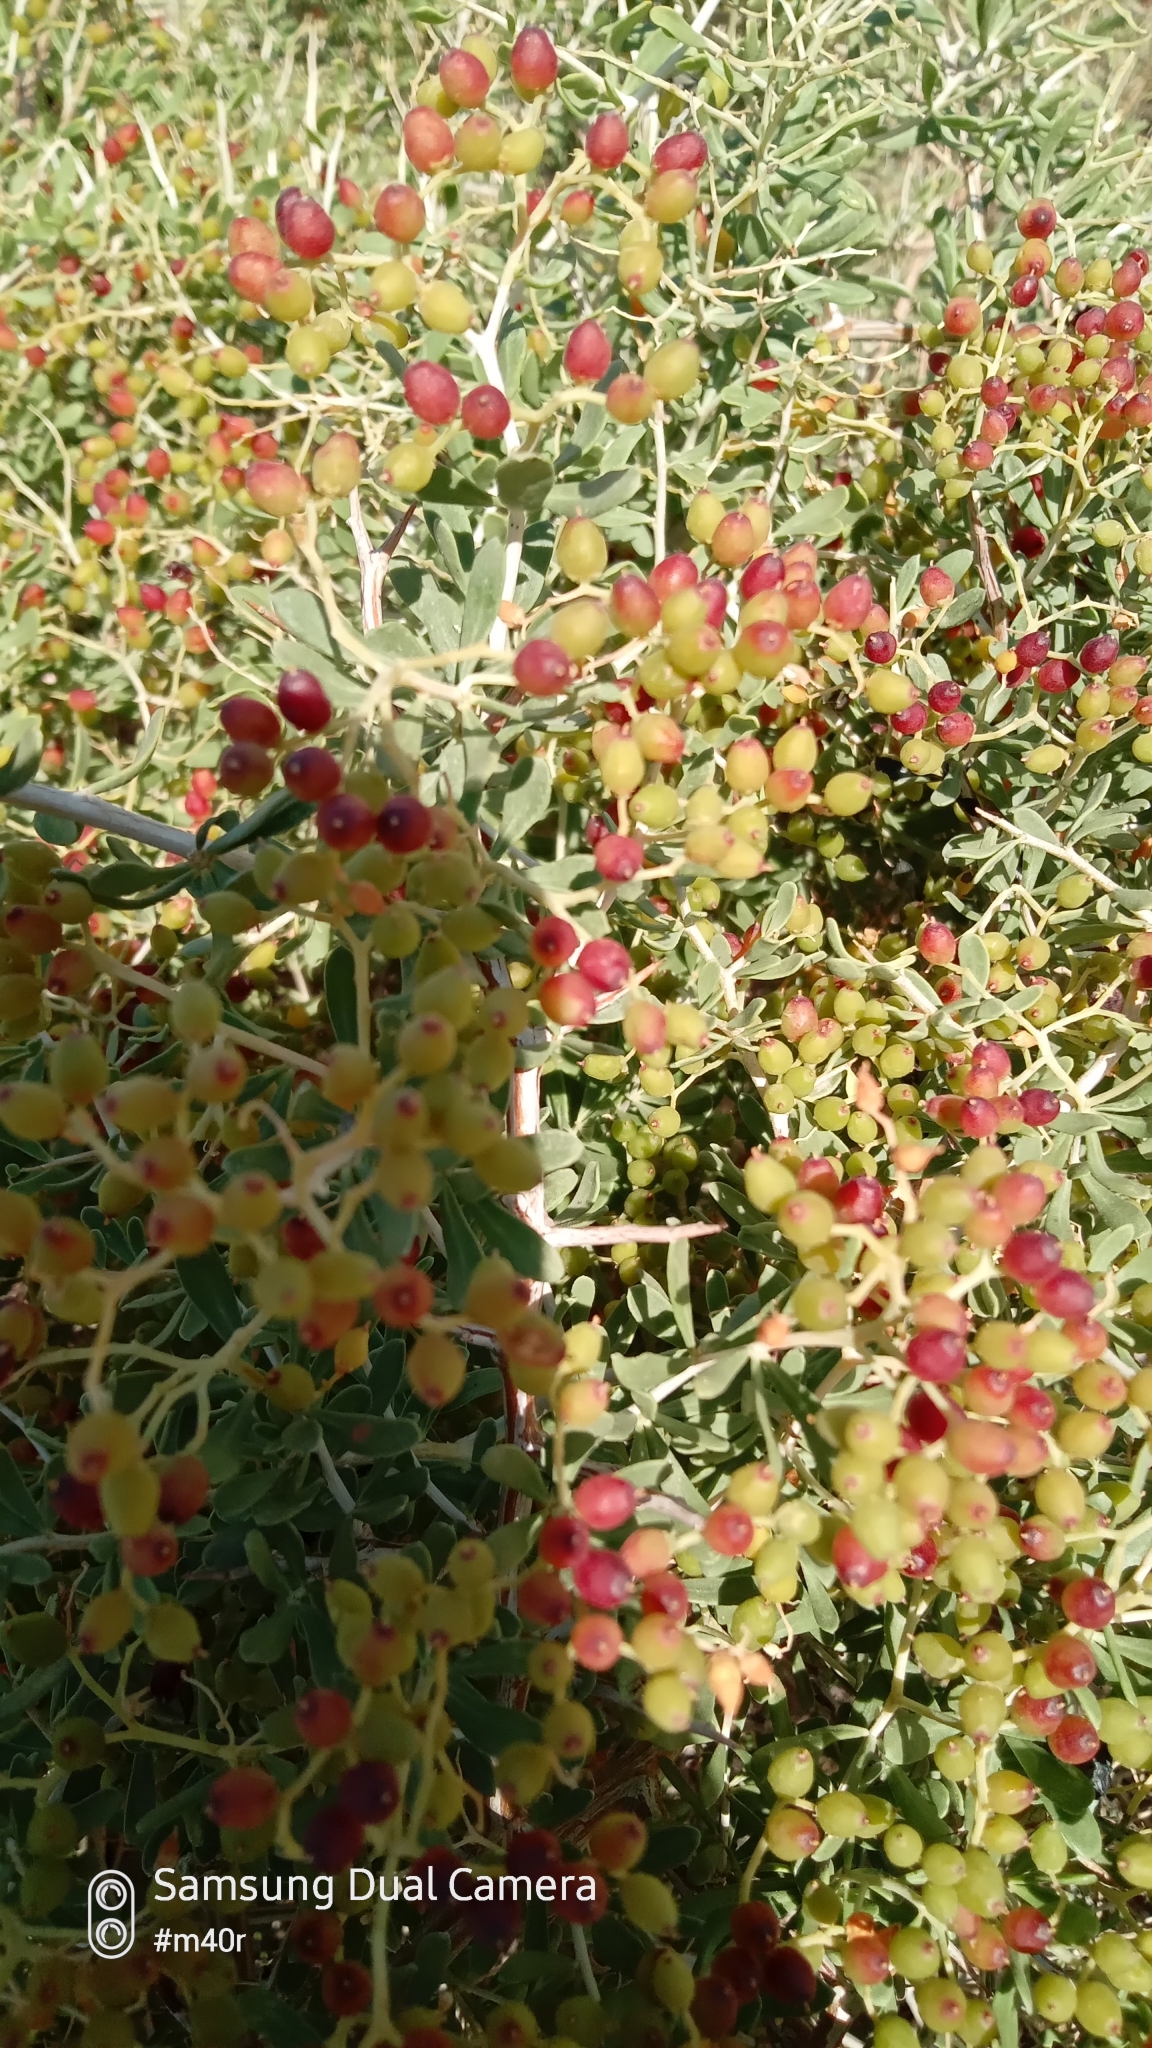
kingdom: Plantae
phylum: Tracheophyta
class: Magnoliopsida
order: Sapindales
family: Nitrariaceae
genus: Nitraria
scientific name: Nitraria sibirica
